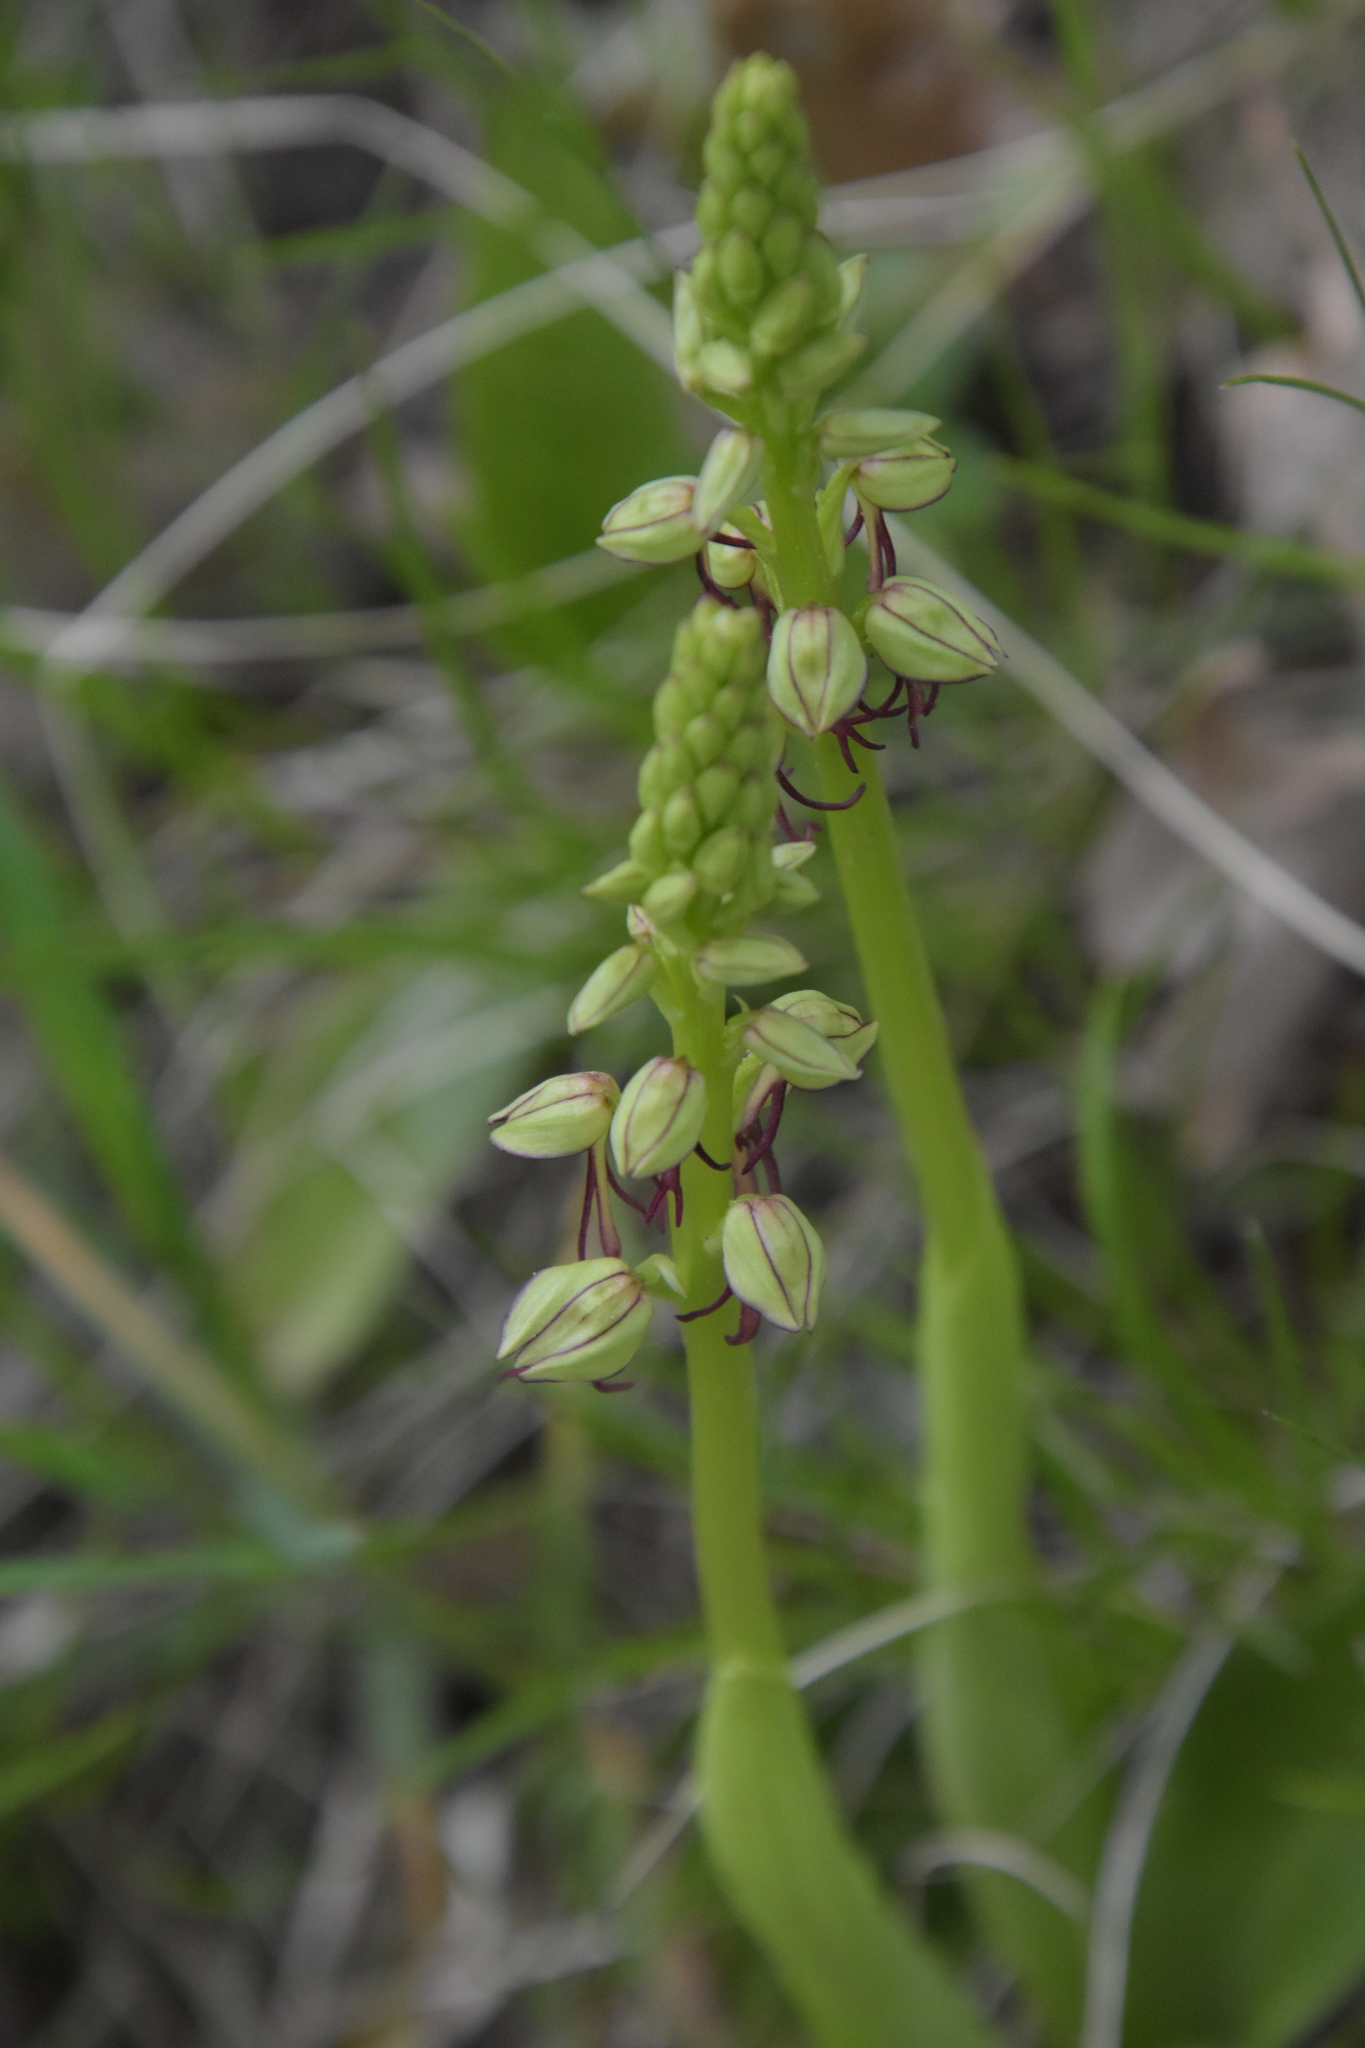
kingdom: Plantae
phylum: Tracheophyta
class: Liliopsida
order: Asparagales
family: Orchidaceae
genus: Orchis
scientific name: Orchis anthropophora
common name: Man orchid
